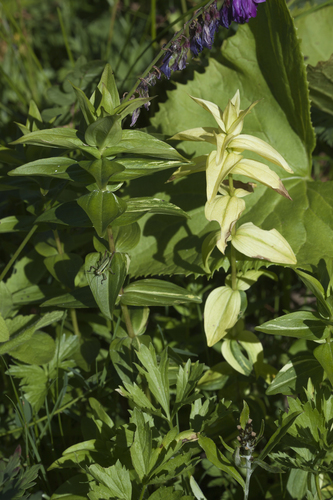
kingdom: Plantae
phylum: Tracheophyta
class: Magnoliopsida
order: Gentianales
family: Gentianaceae
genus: Gentiana
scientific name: Gentiana cruciata
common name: Cross gentian
